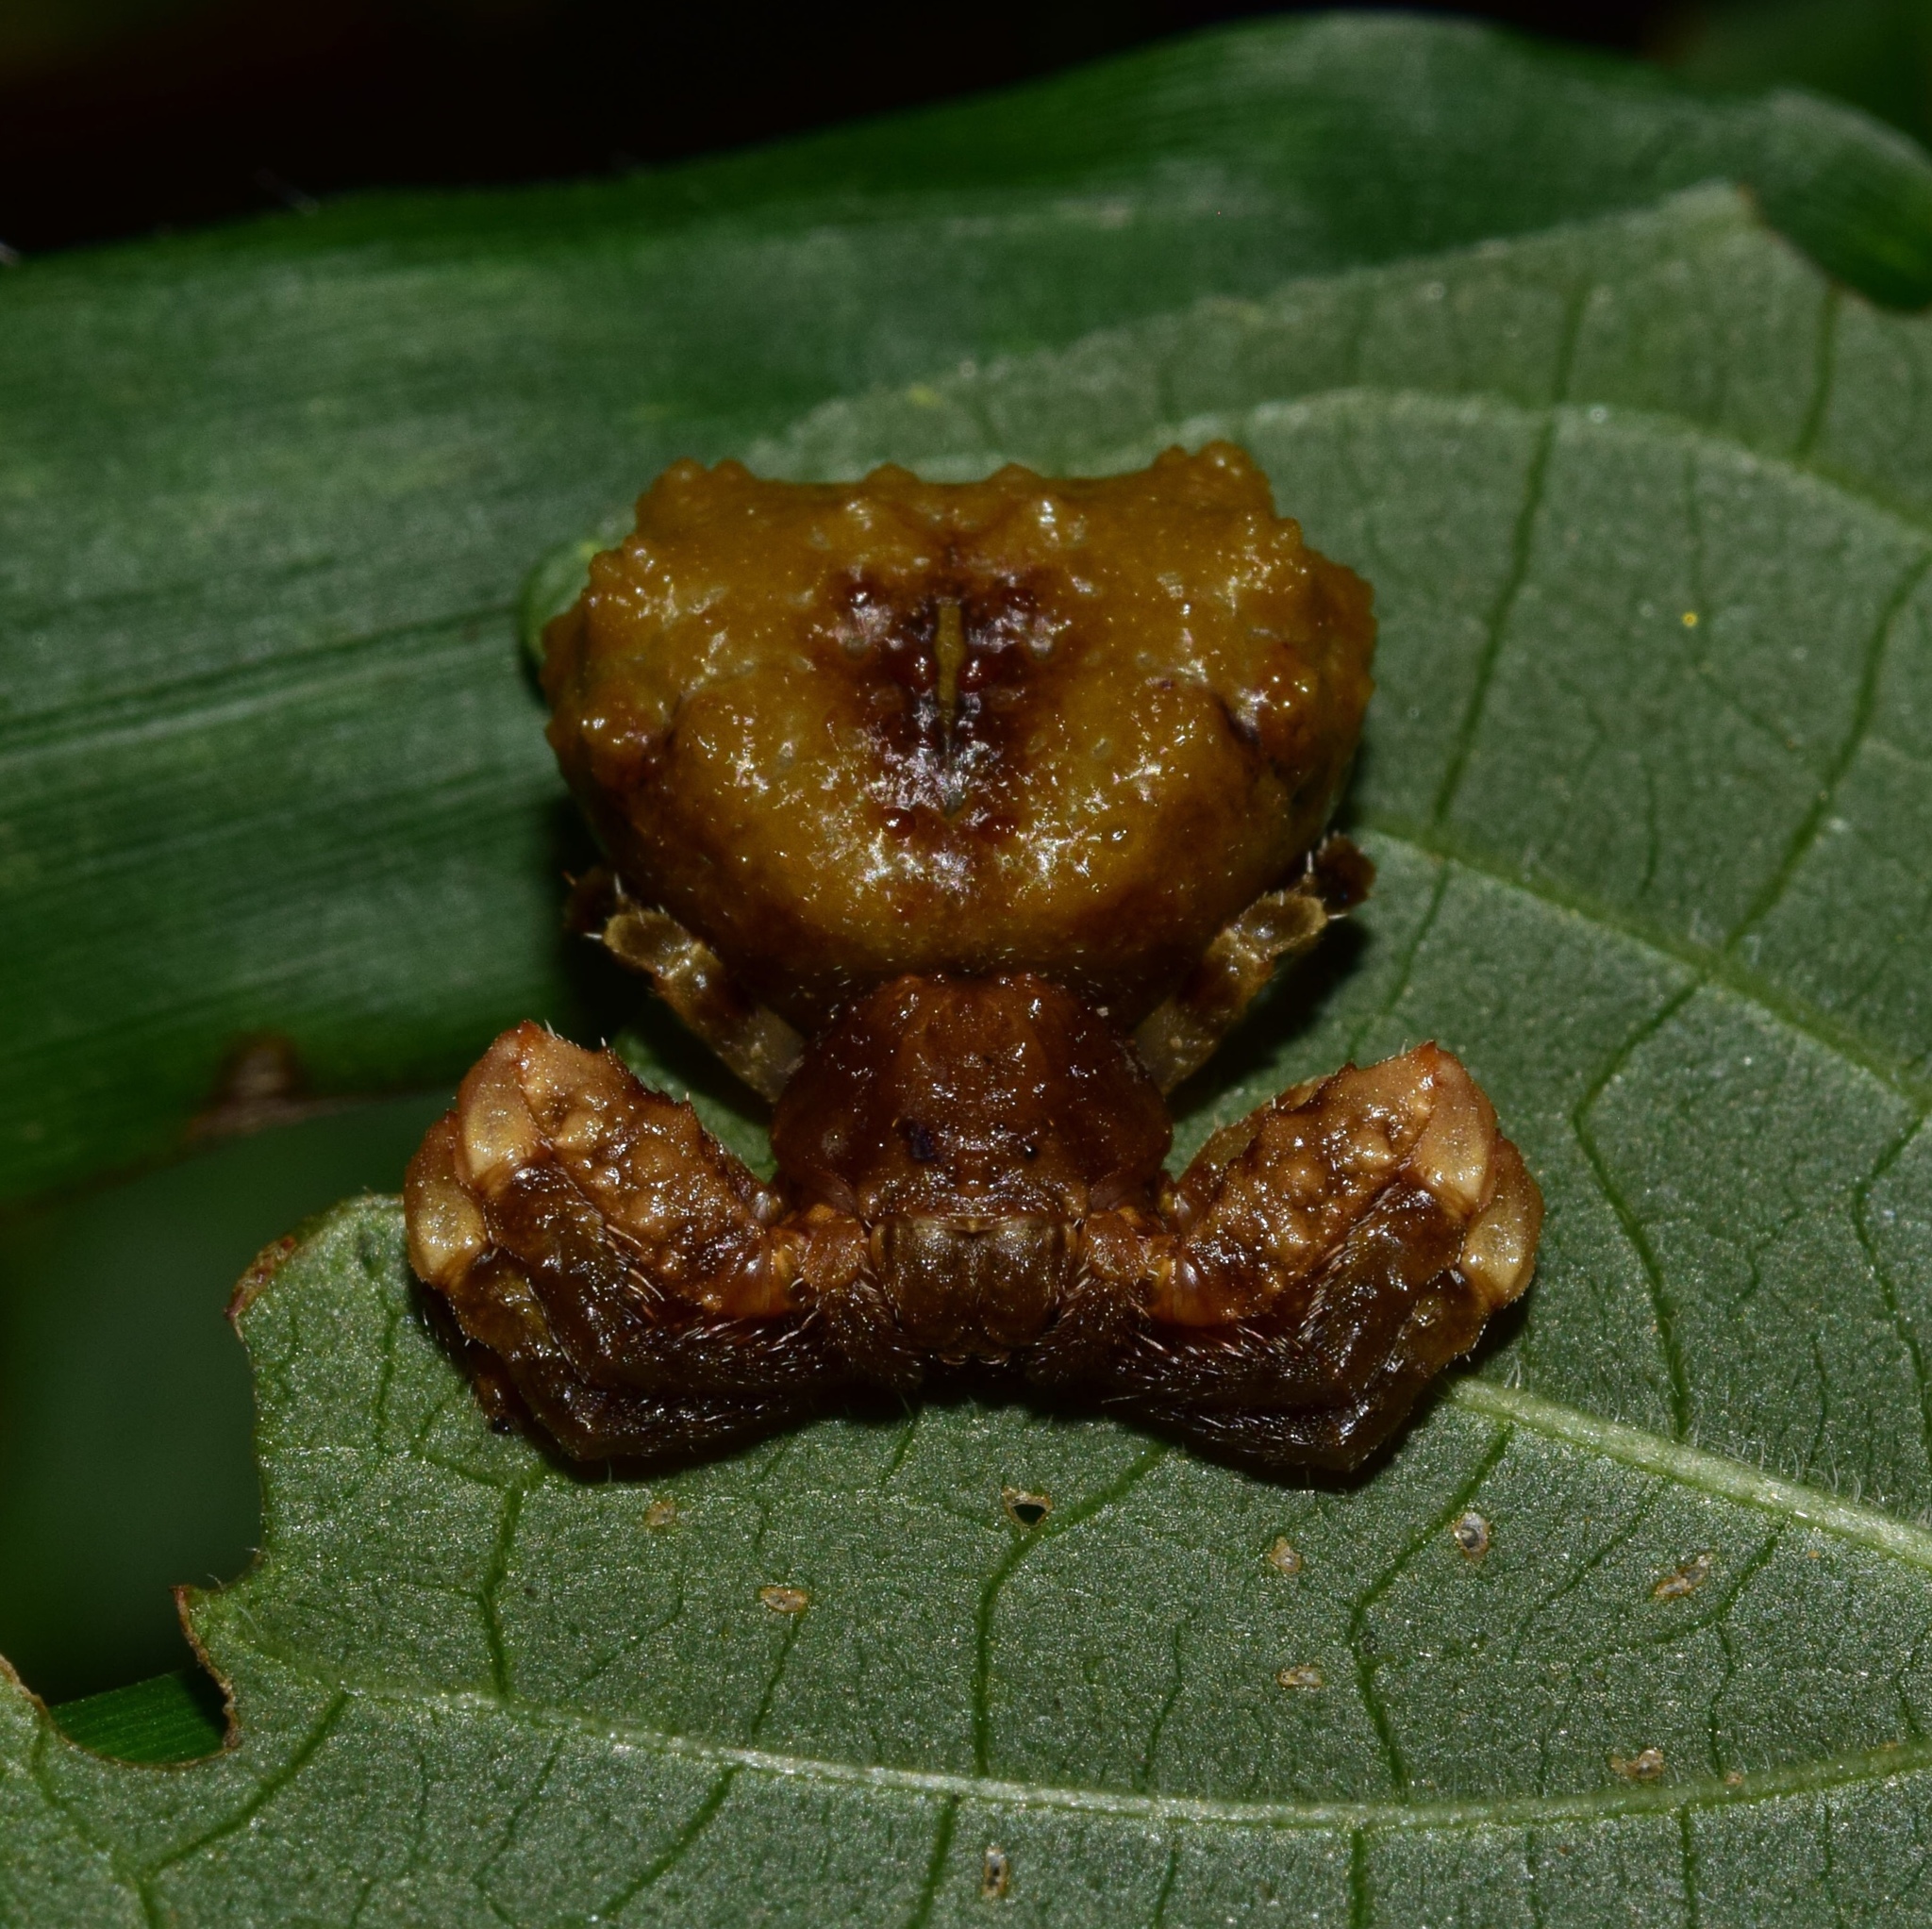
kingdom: Animalia
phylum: Arthropoda
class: Arachnida
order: Araneae
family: Thomisidae
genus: Phrynarachne
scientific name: Phrynarachne rugosa
